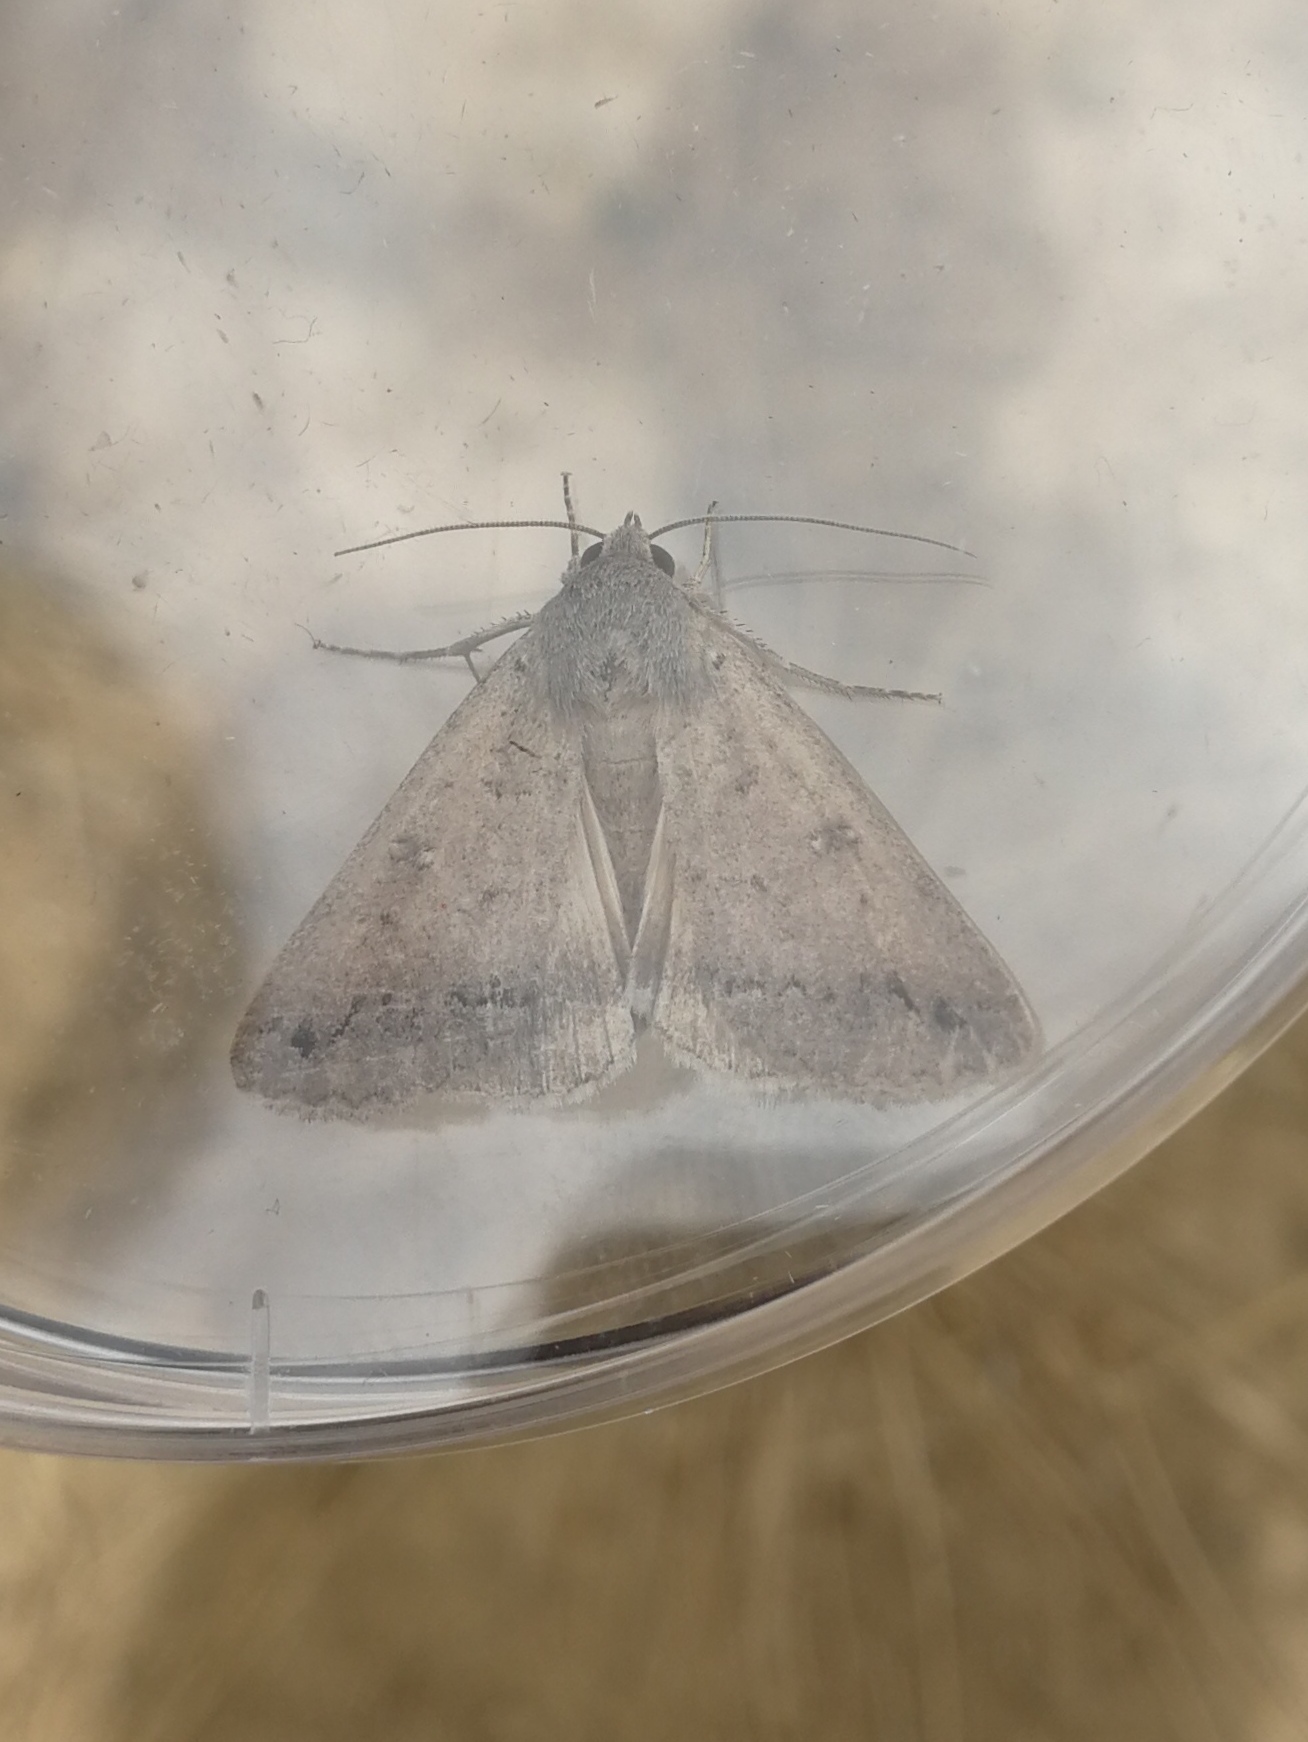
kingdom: Animalia
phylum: Arthropoda
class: Insecta
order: Lepidoptera
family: Erebidae
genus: Clytie
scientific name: Clytie illunaris
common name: Trent double-stripe
